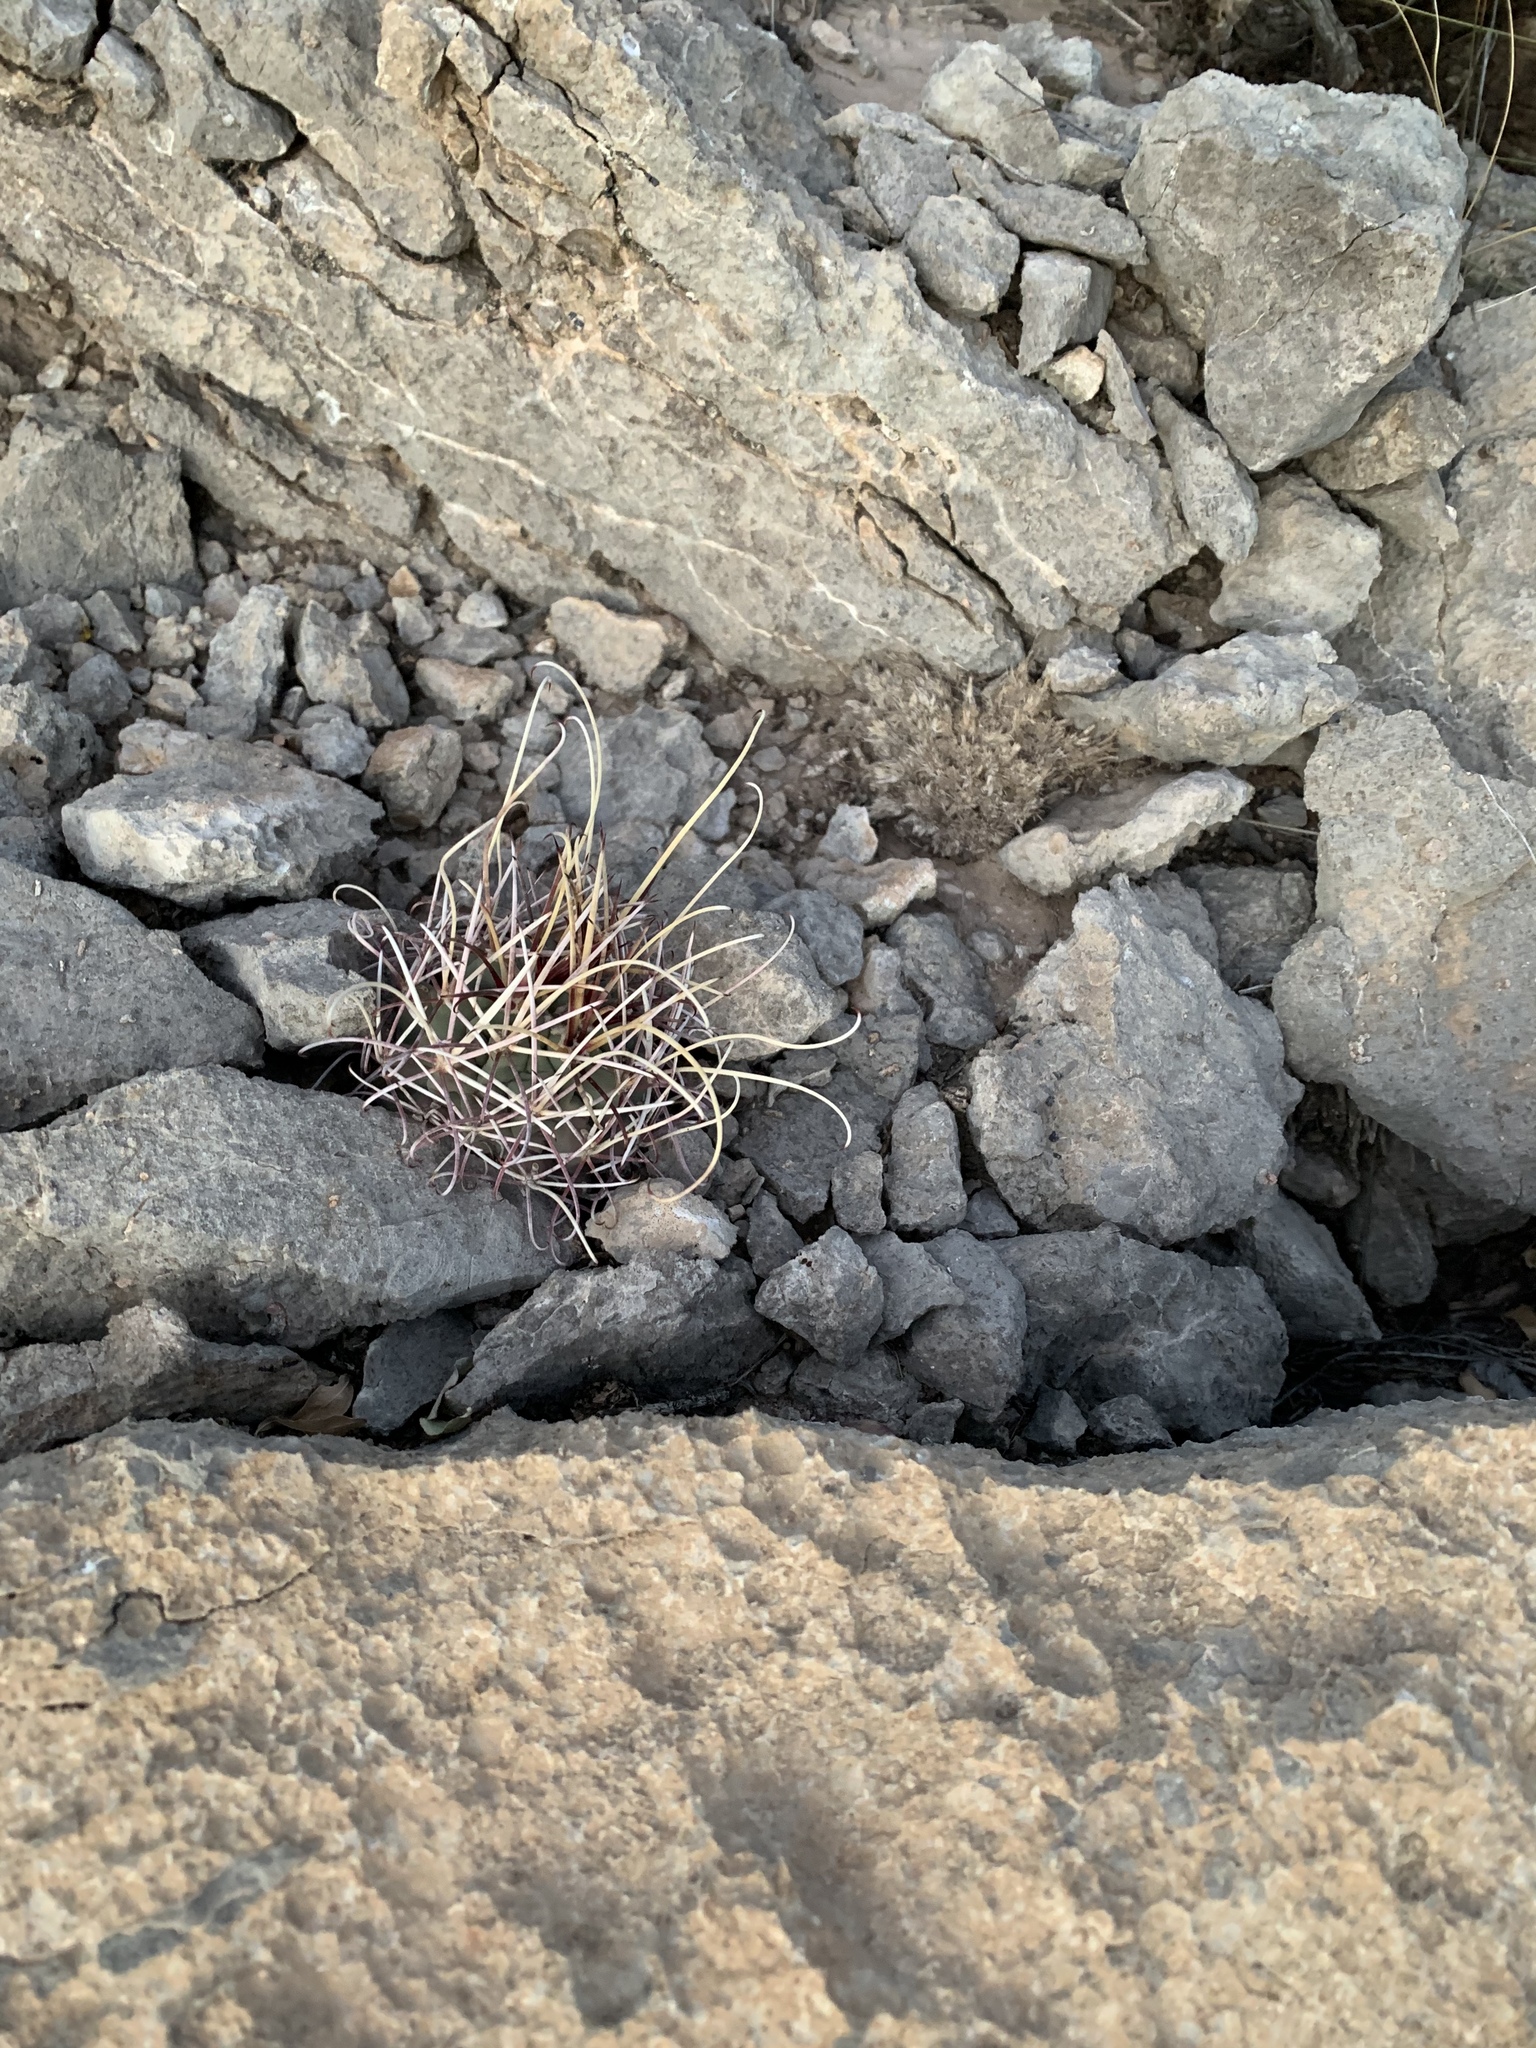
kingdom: Plantae
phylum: Tracheophyta
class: Magnoliopsida
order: Caryophyllales
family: Cactaceae
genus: Ferocactus
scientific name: Ferocactus uncinatus
